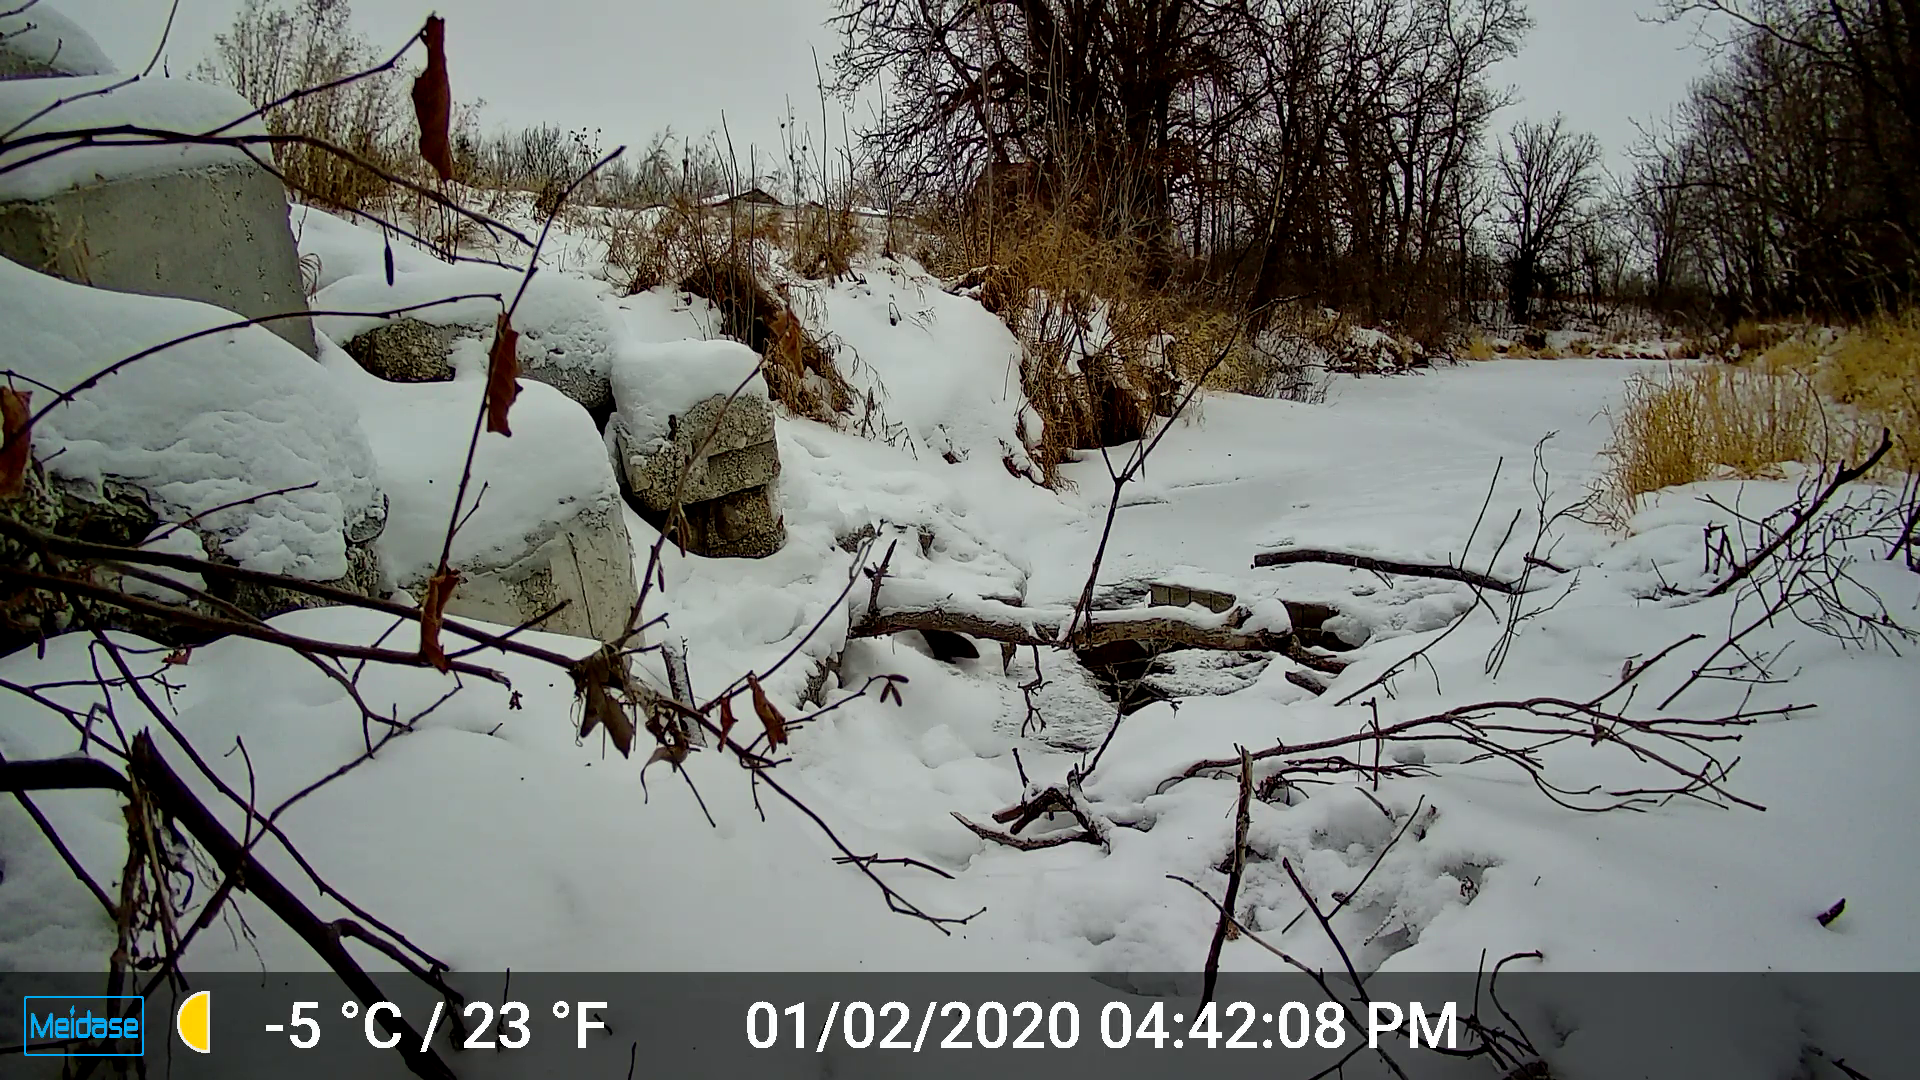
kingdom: Animalia
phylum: Chordata
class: Mammalia
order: Carnivora
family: Mustelidae
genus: Mustela
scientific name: Mustela
